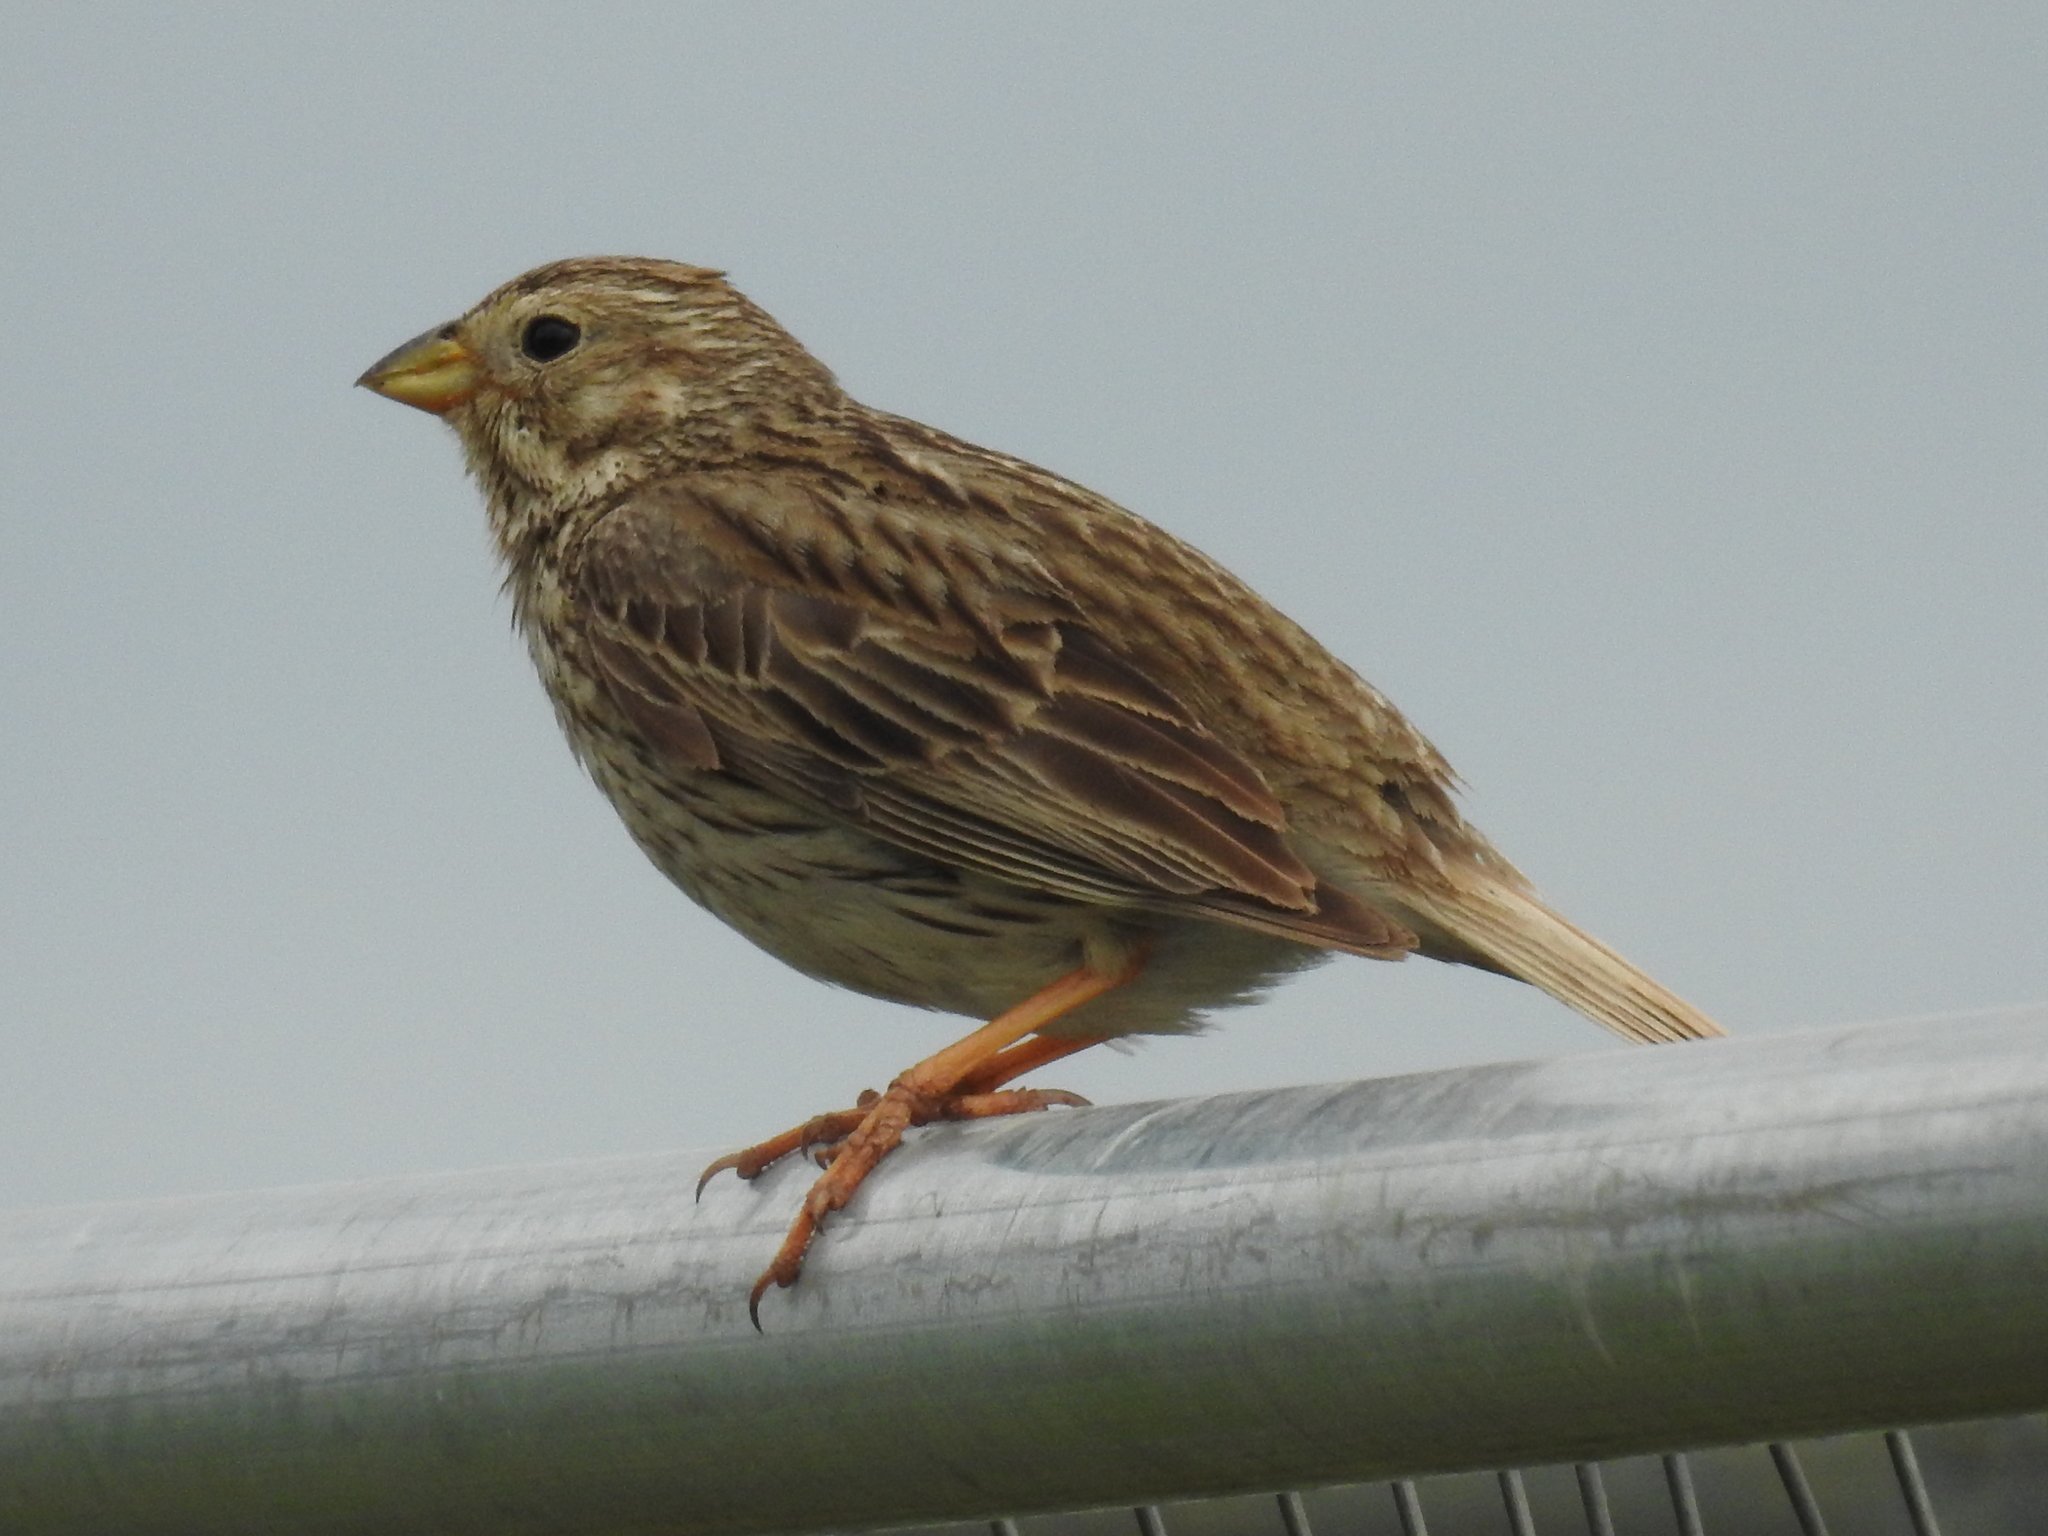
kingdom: Animalia
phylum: Chordata
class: Aves
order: Passeriformes
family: Emberizidae
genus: Emberiza
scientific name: Emberiza calandra
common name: Corn bunting
